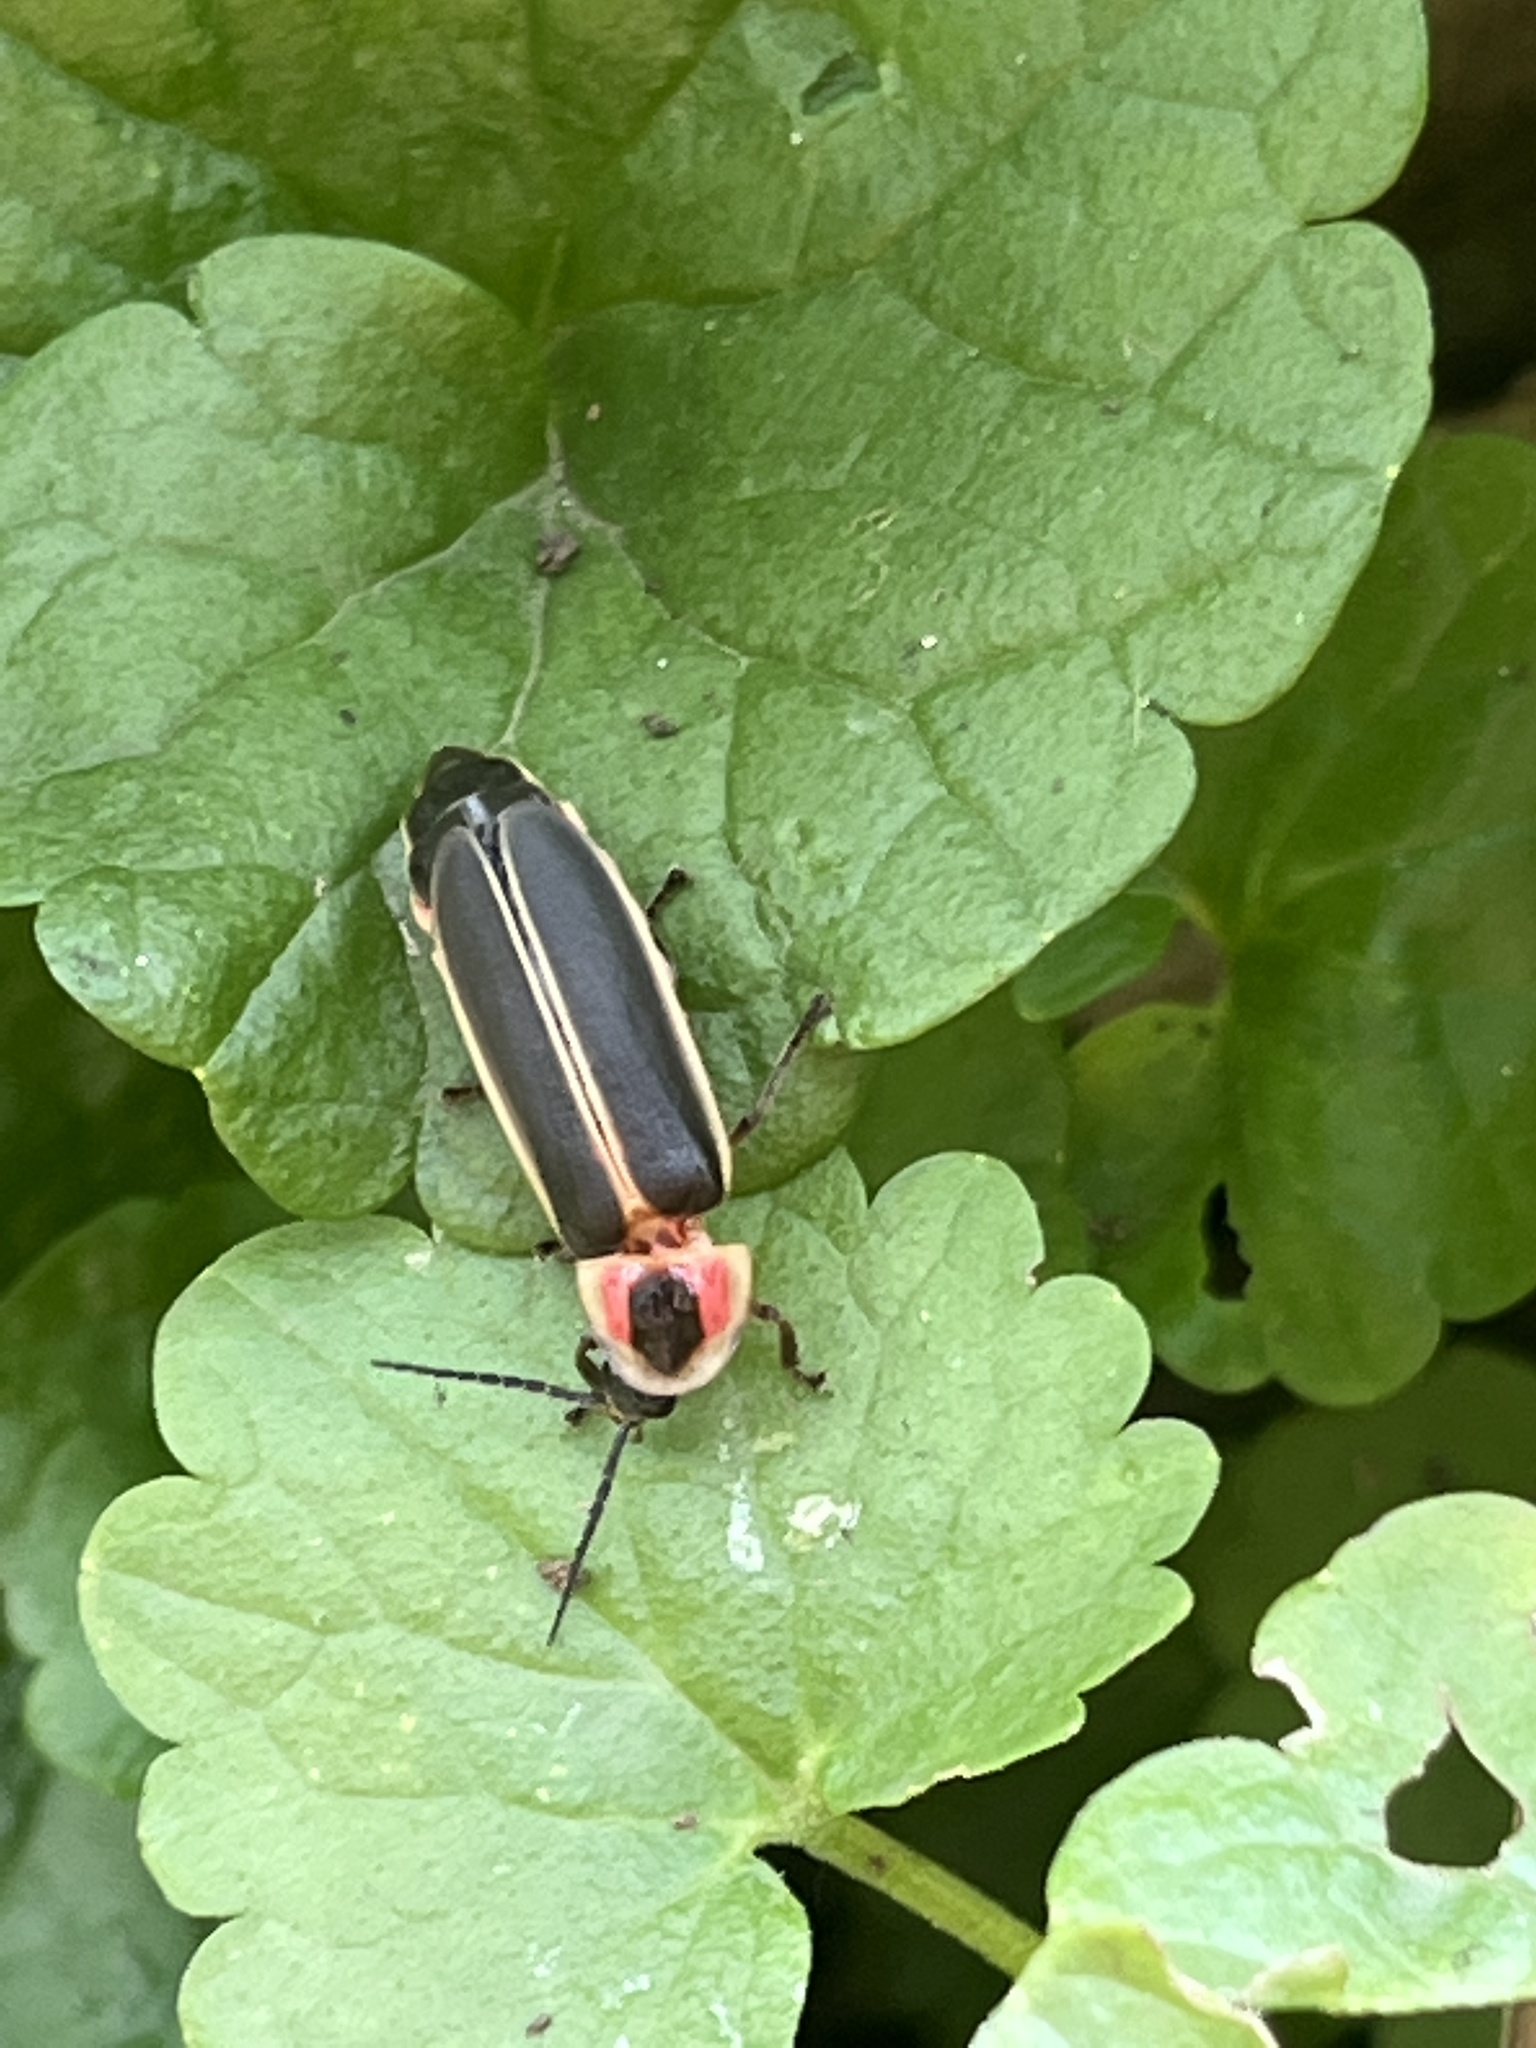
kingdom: Animalia
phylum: Arthropoda
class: Insecta
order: Coleoptera
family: Lampyridae
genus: Photinus
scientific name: Photinus pyralis
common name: Big dipper firefly
